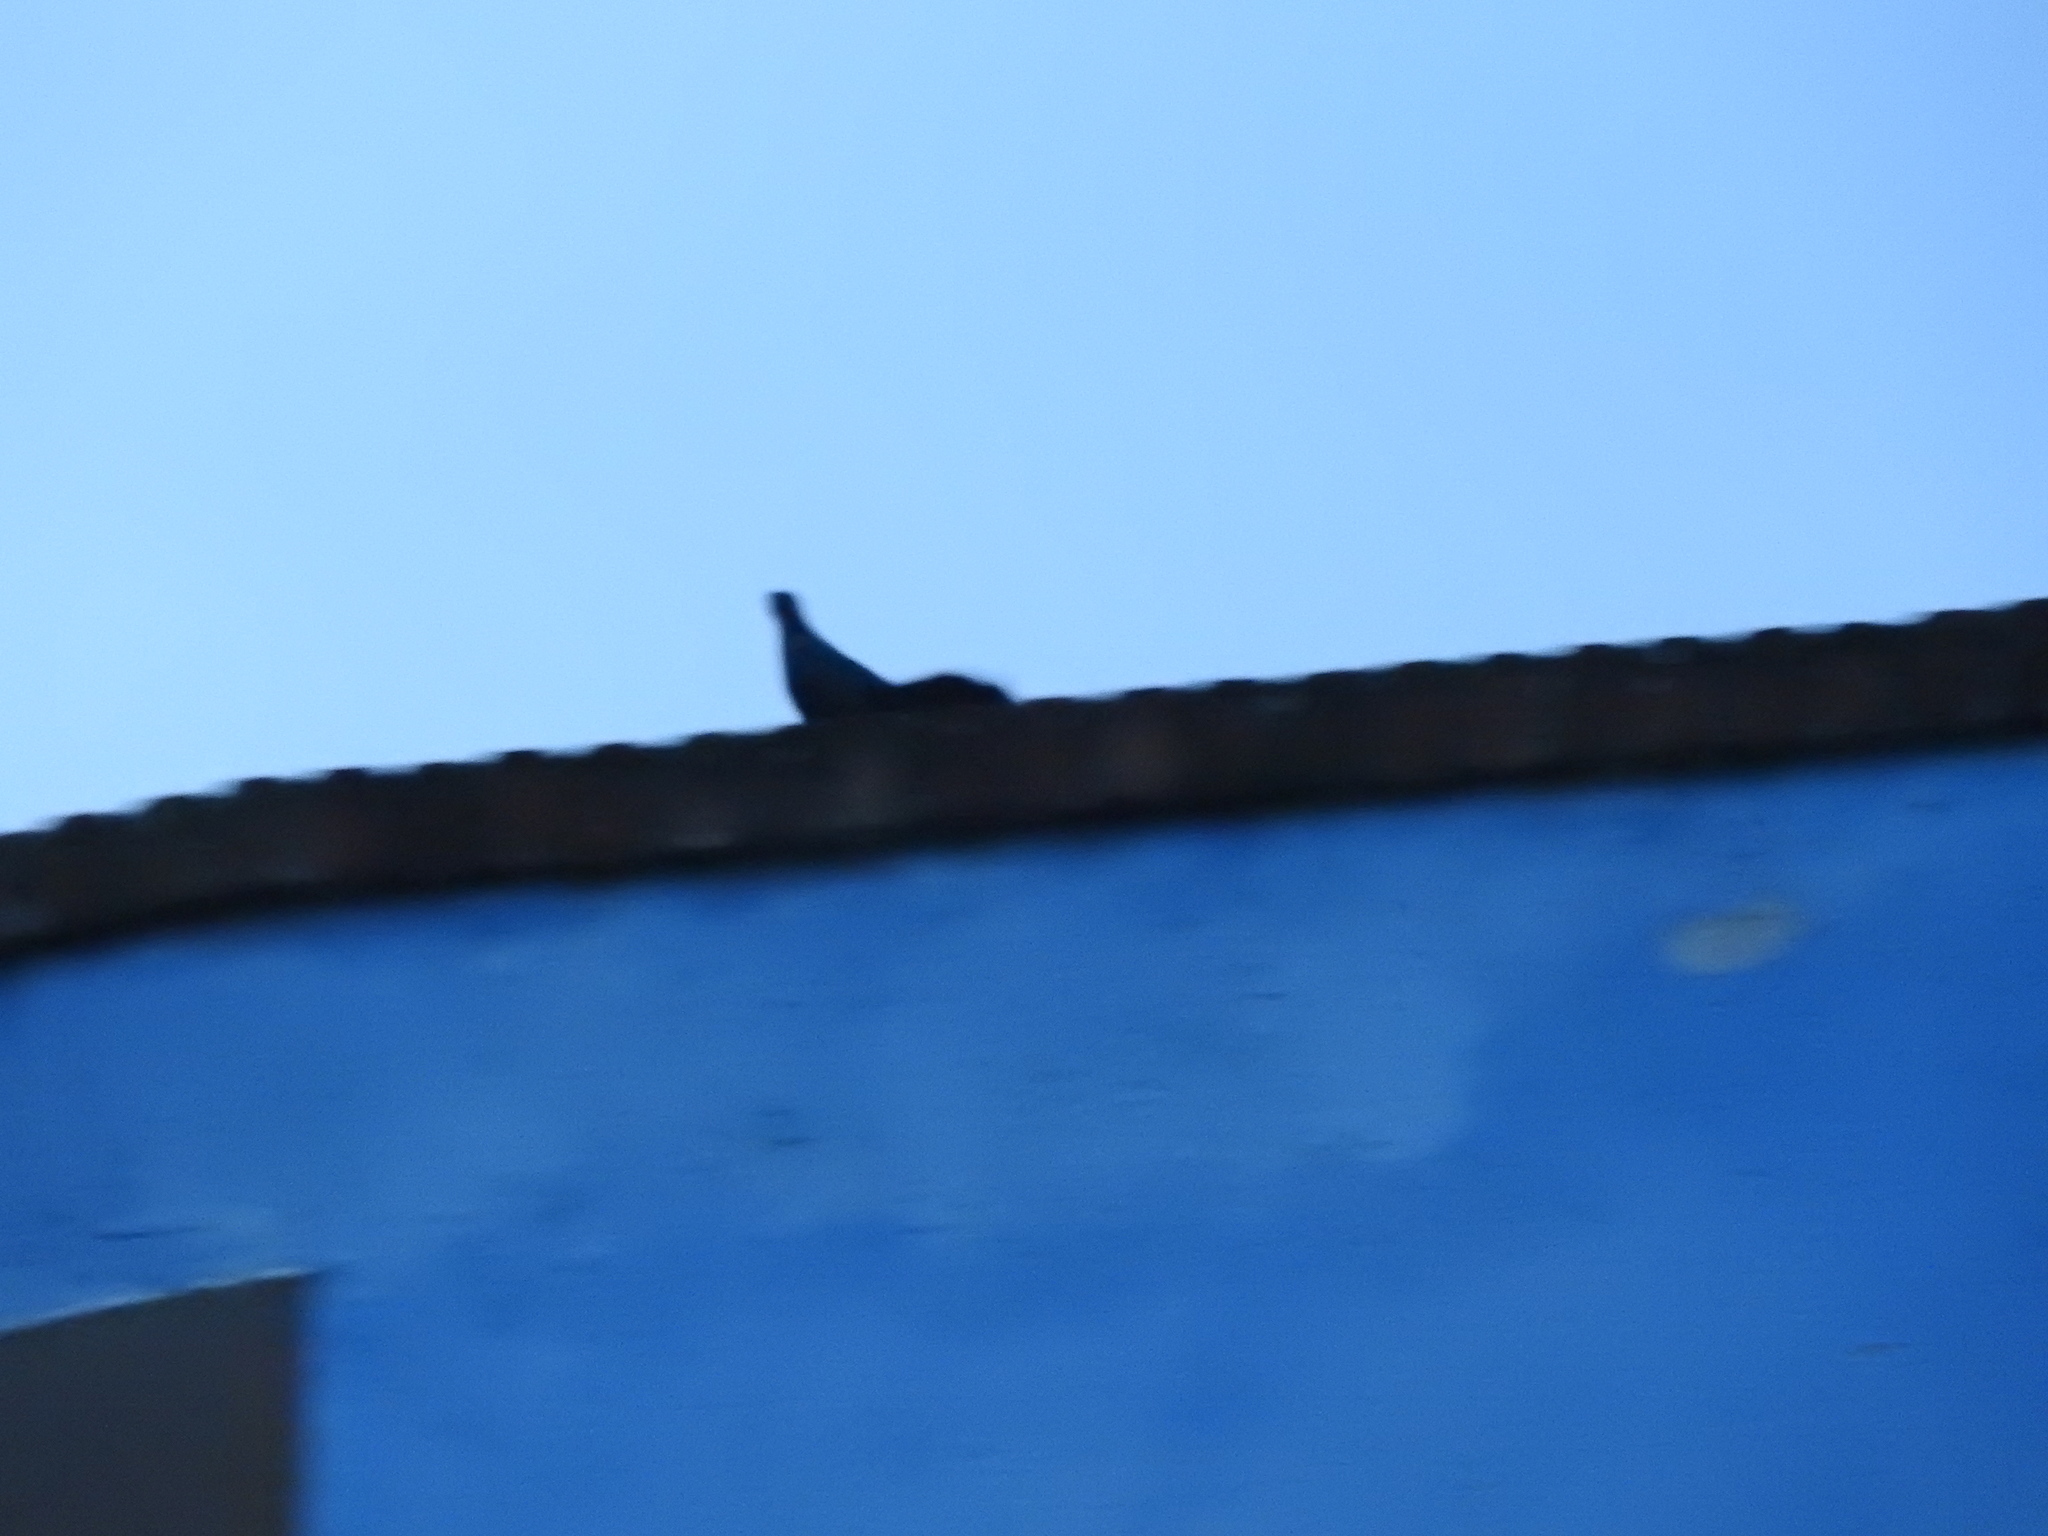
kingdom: Animalia
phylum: Chordata
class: Aves
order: Passeriformes
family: Icteridae
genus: Quiscalus
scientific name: Quiscalus mexicanus
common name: Great-tailed grackle
